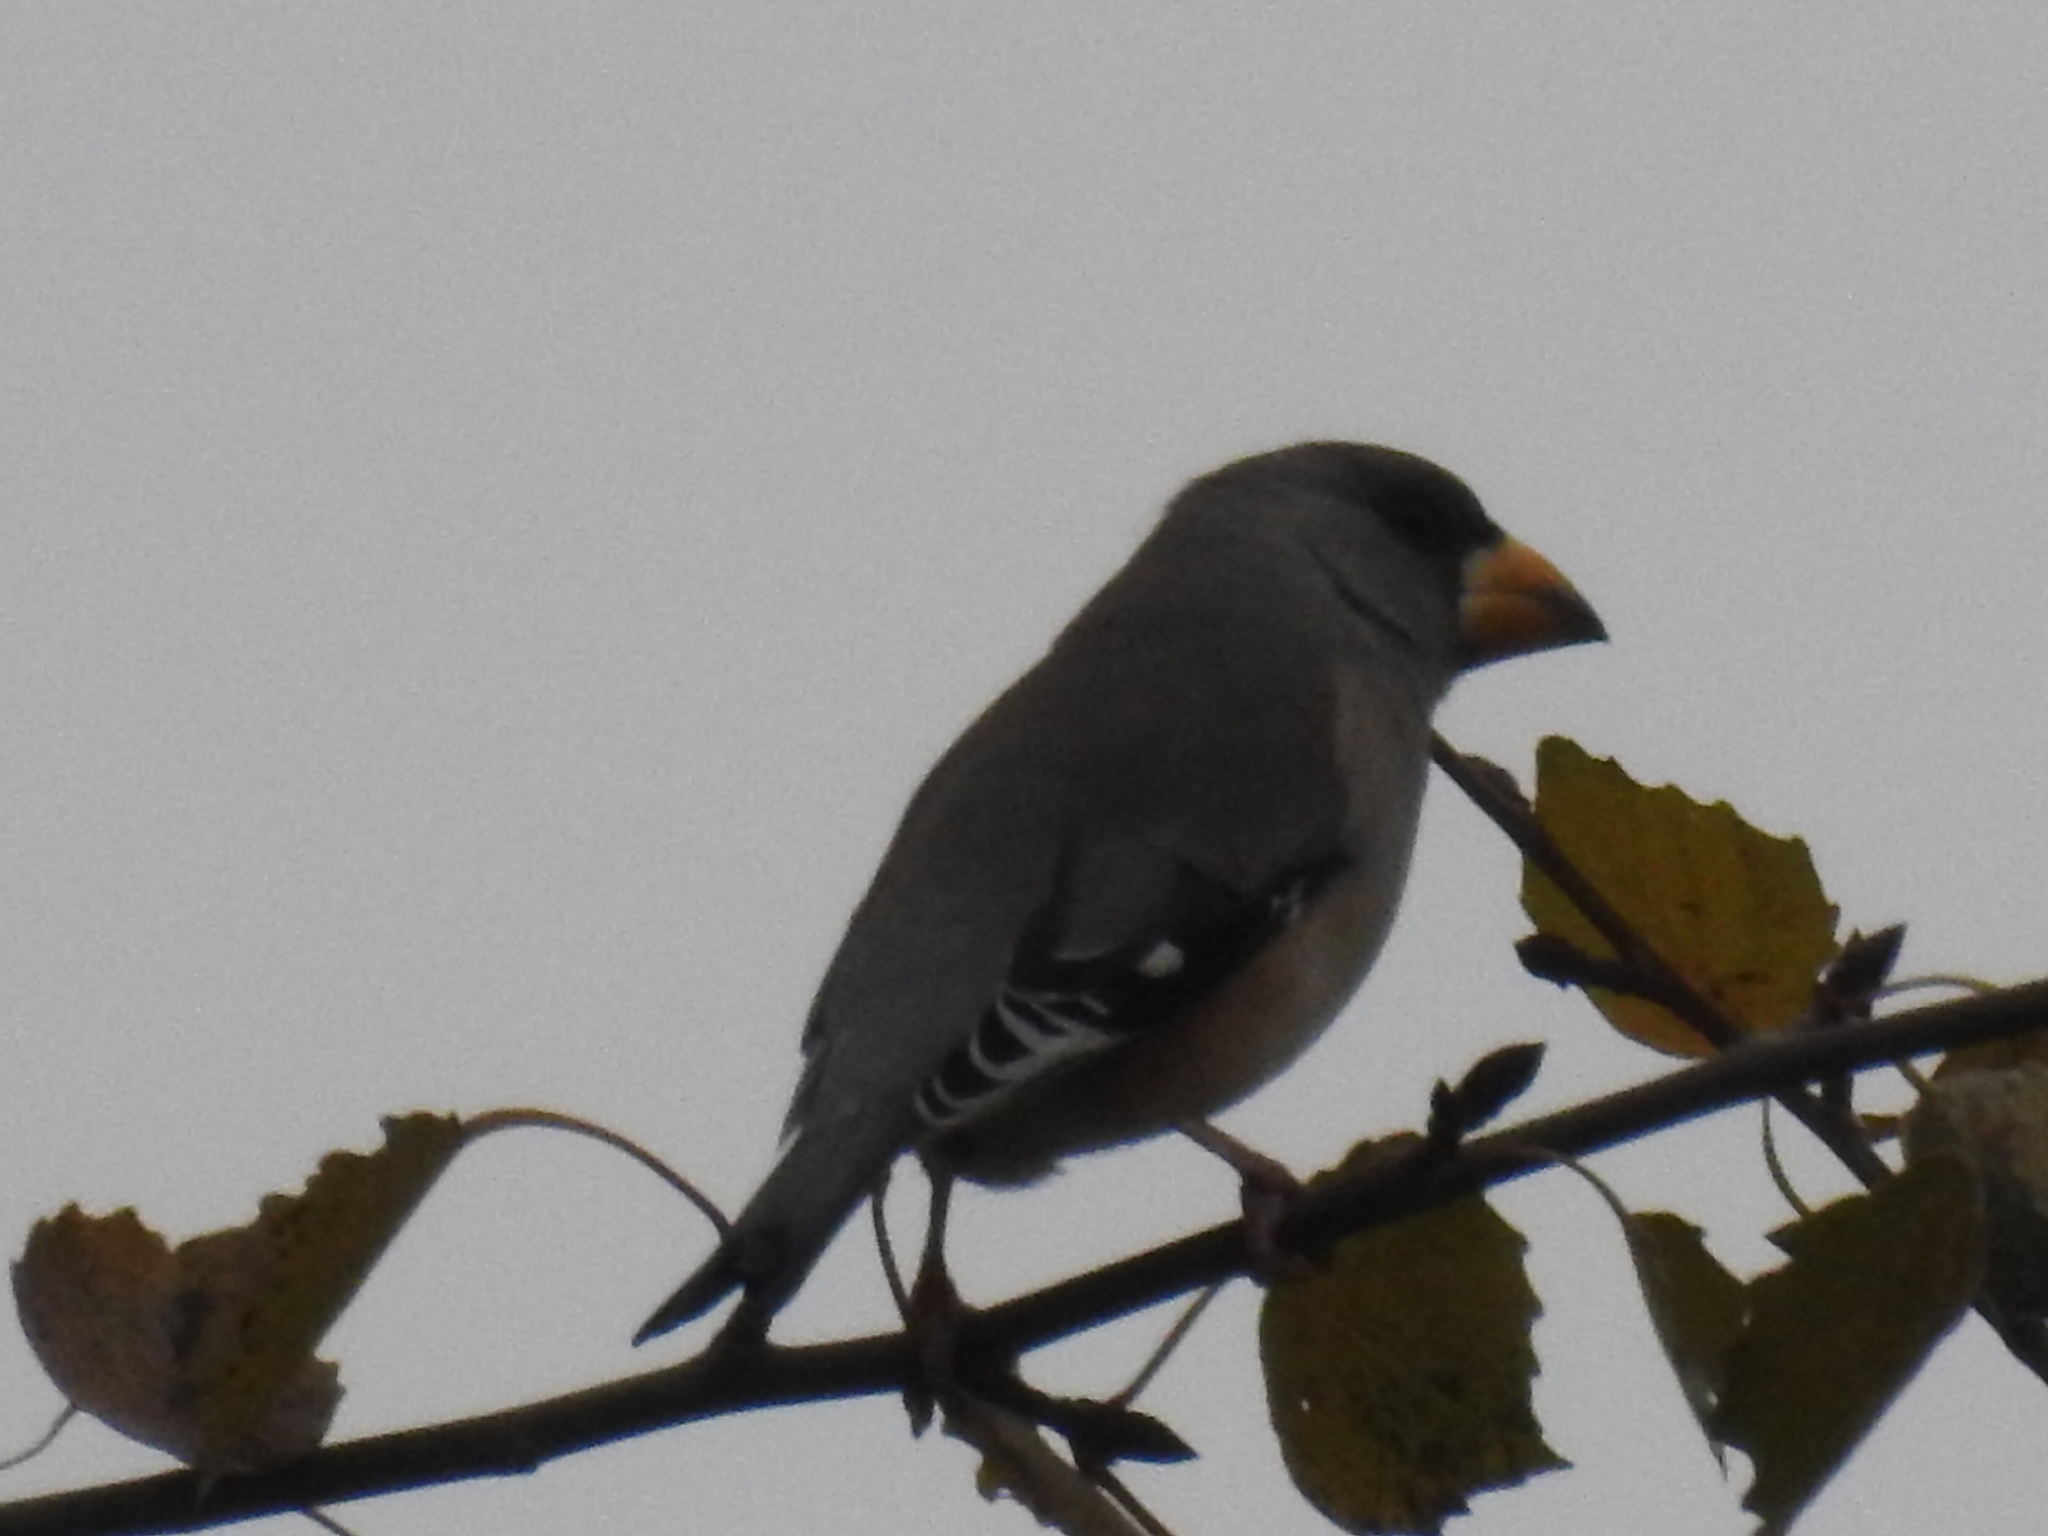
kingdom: Animalia
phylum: Chordata
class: Aves
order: Passeriformes
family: Fringillidae
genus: Eophona
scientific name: Eophona migratoria
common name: Yellow-billed grosbeak
